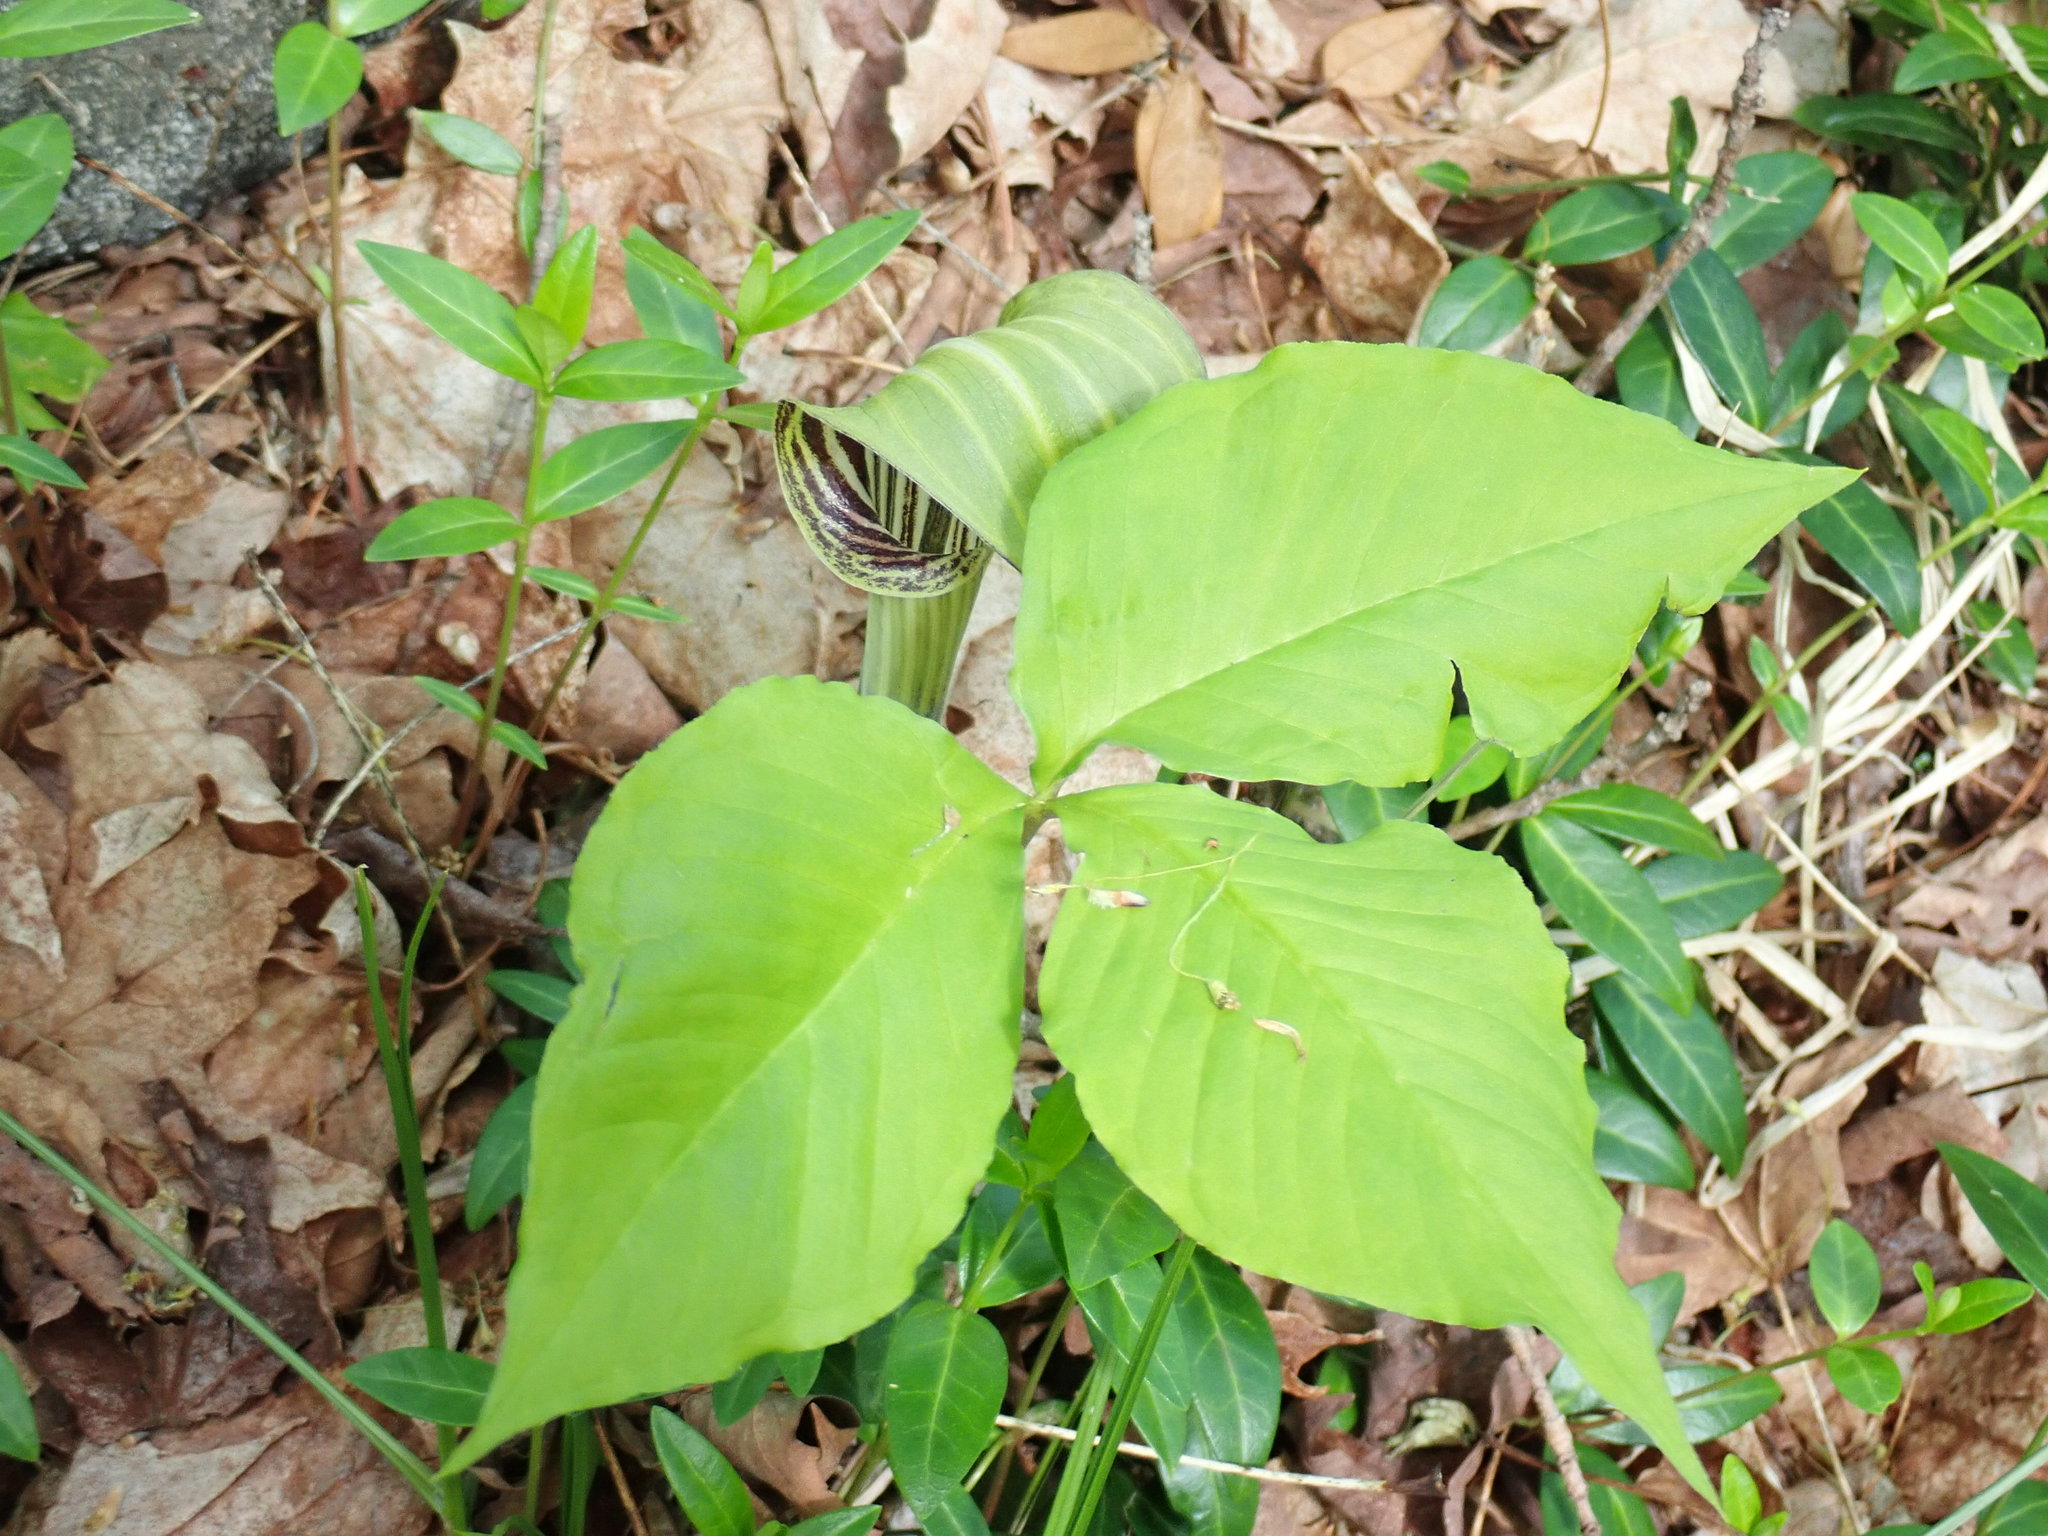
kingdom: Plantae
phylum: Tracheophyta
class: Liliopsida
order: Alismatales
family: Araceae
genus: Arisaema
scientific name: Arisaema triphyllum
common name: Jack-in-the-pulpit
